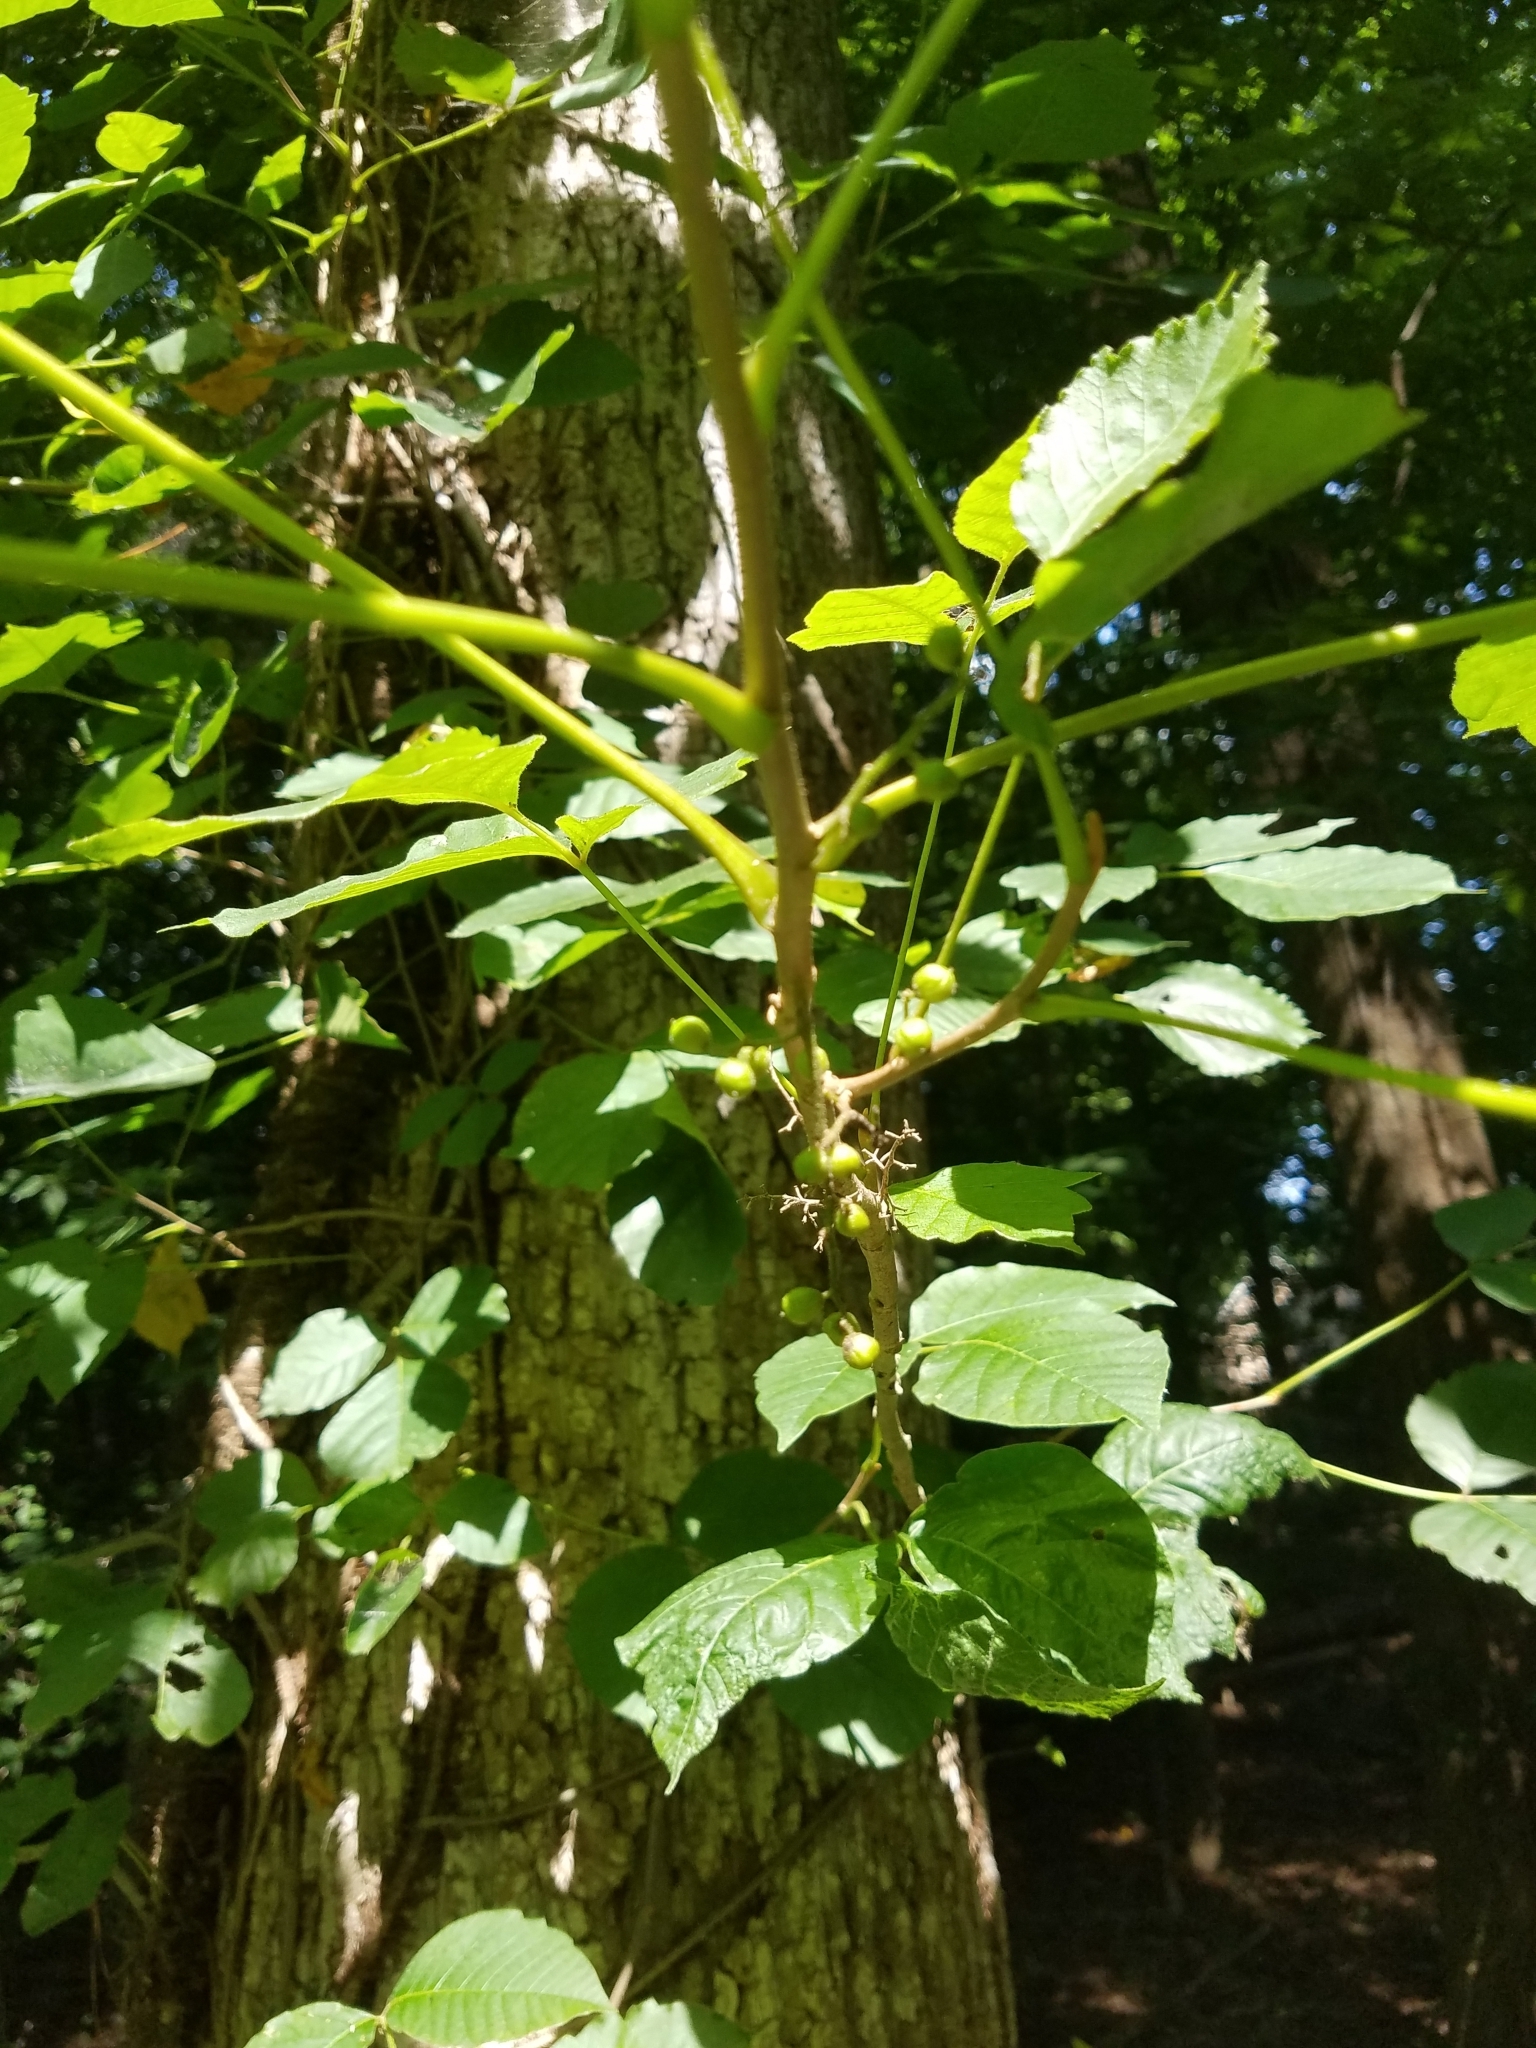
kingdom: Plantae
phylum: Tracheophyta
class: Magnoliopsida
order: Sapindales
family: Anacardiaceae
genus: Toxicodendron
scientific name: Toxicodendron radicans
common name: Poison ivy
